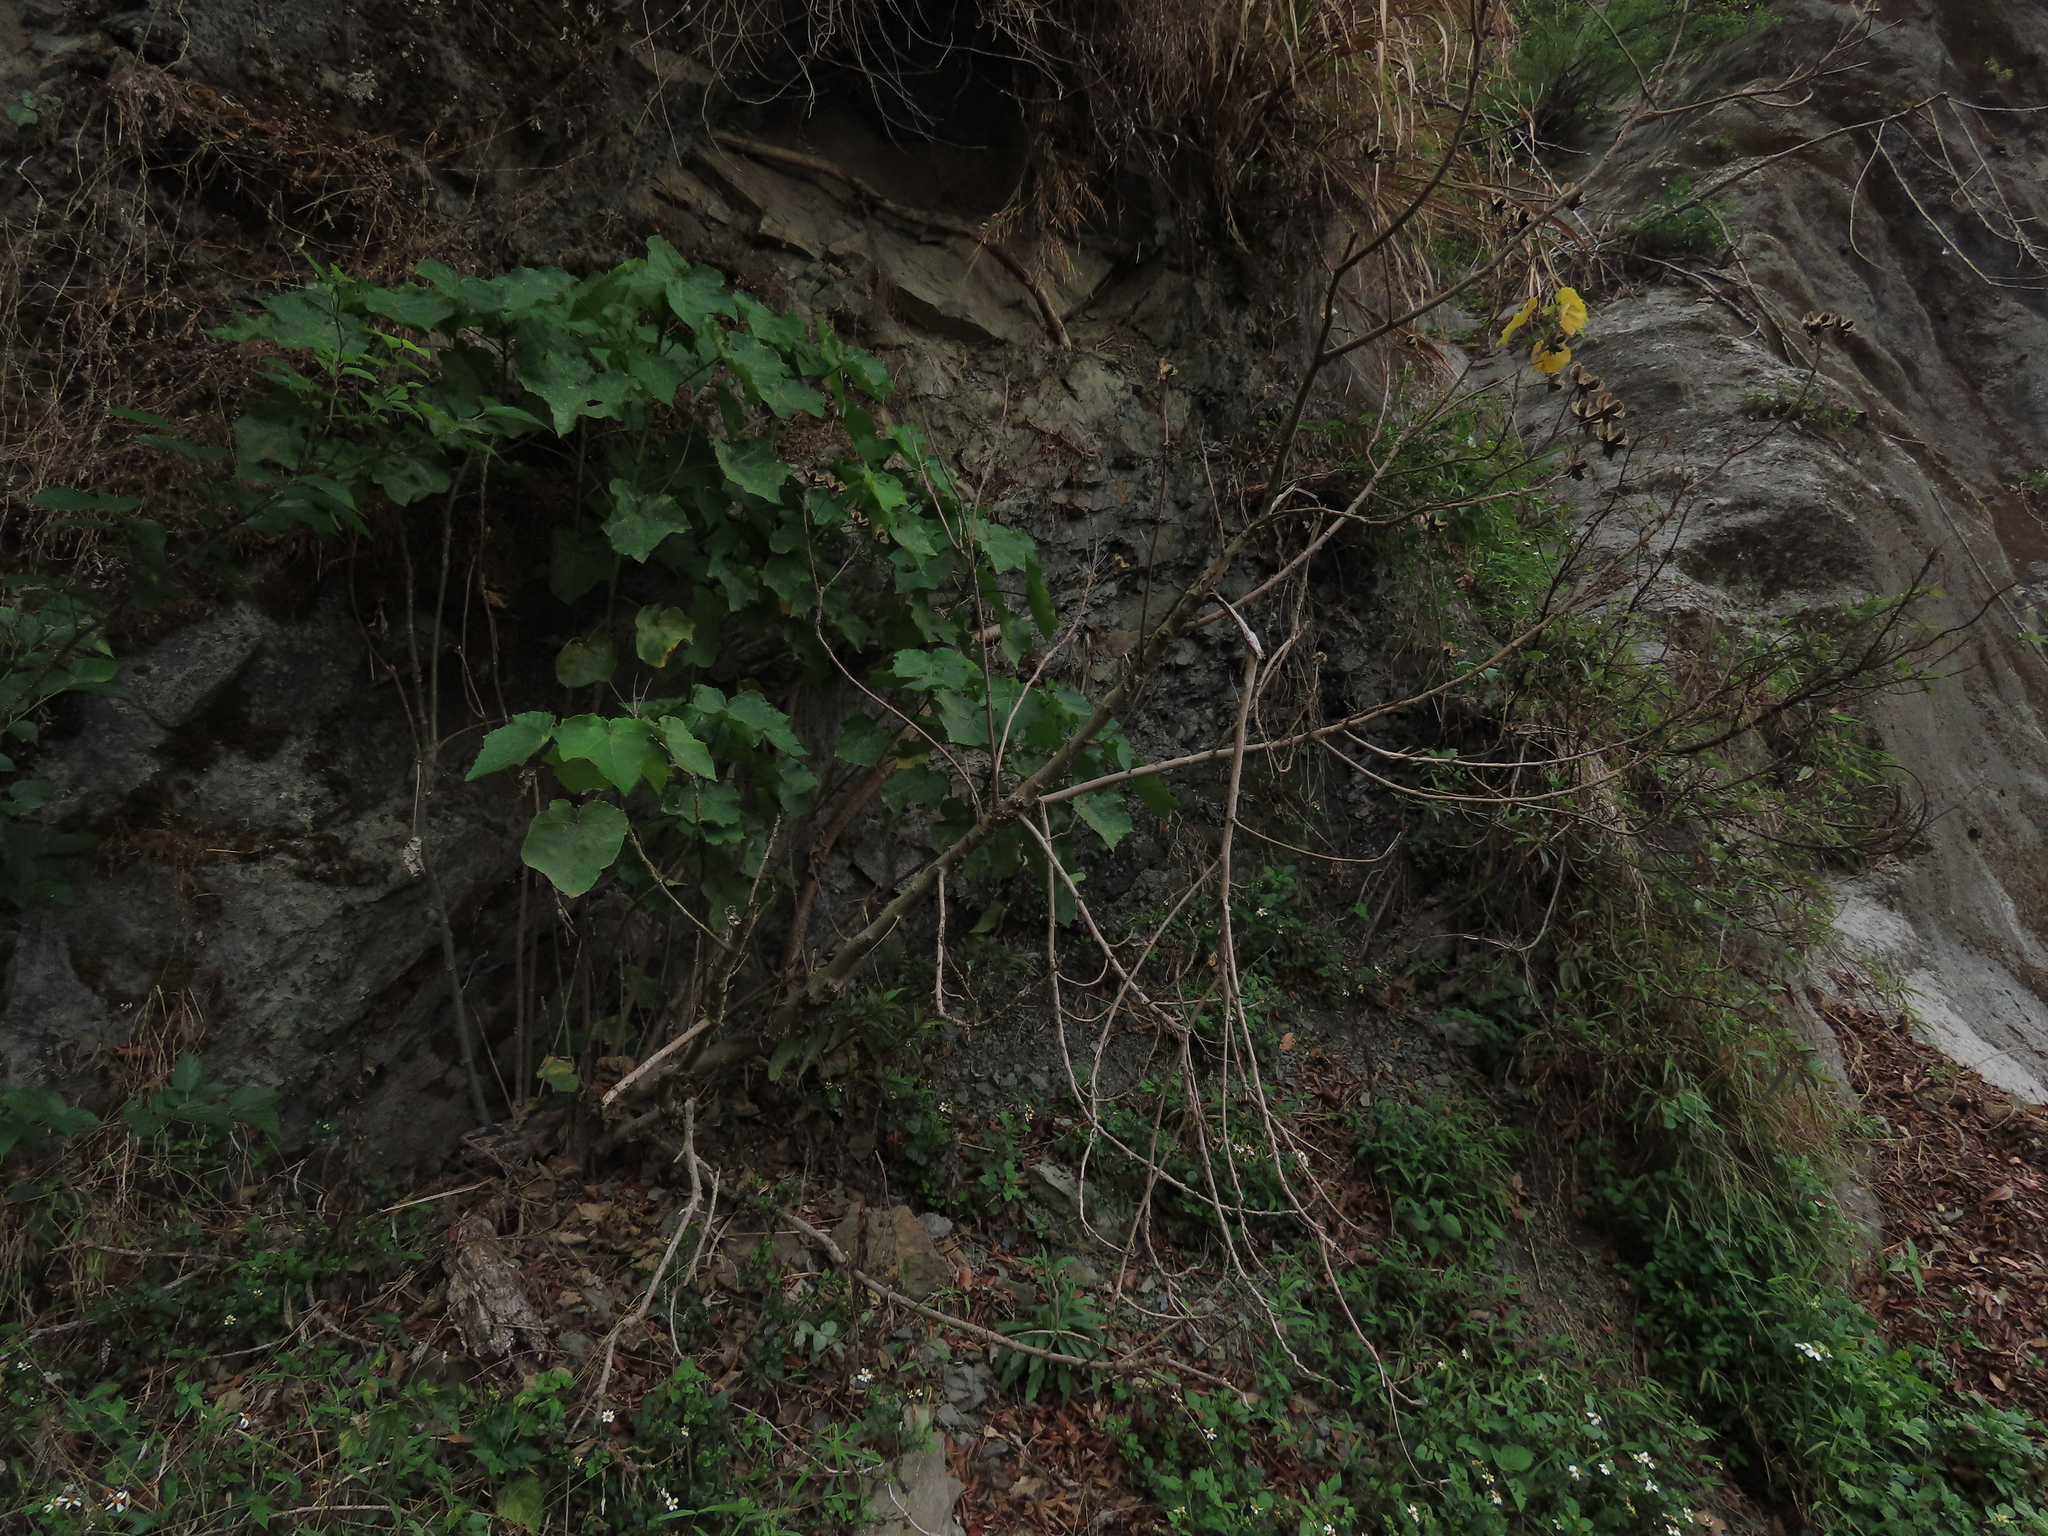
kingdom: Plantae
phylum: Tracheophyta
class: Magnoliopsida
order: Malvales
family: Malvaceae
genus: Hibiscus
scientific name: Hibiscus taiwanensis
